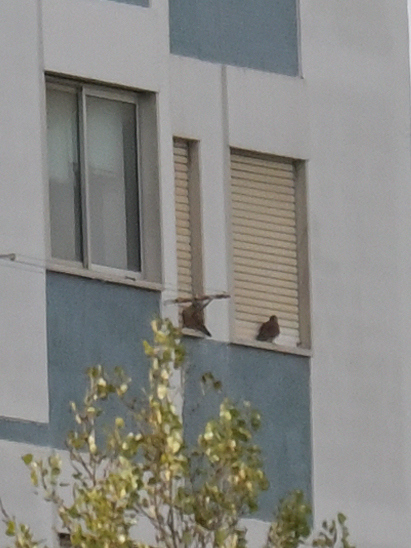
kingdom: Animalia
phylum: Chordata
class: Aves
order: Falconiformes
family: Falconidae
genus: Falco
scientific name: Falco tinnunculus
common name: Common kestrel
